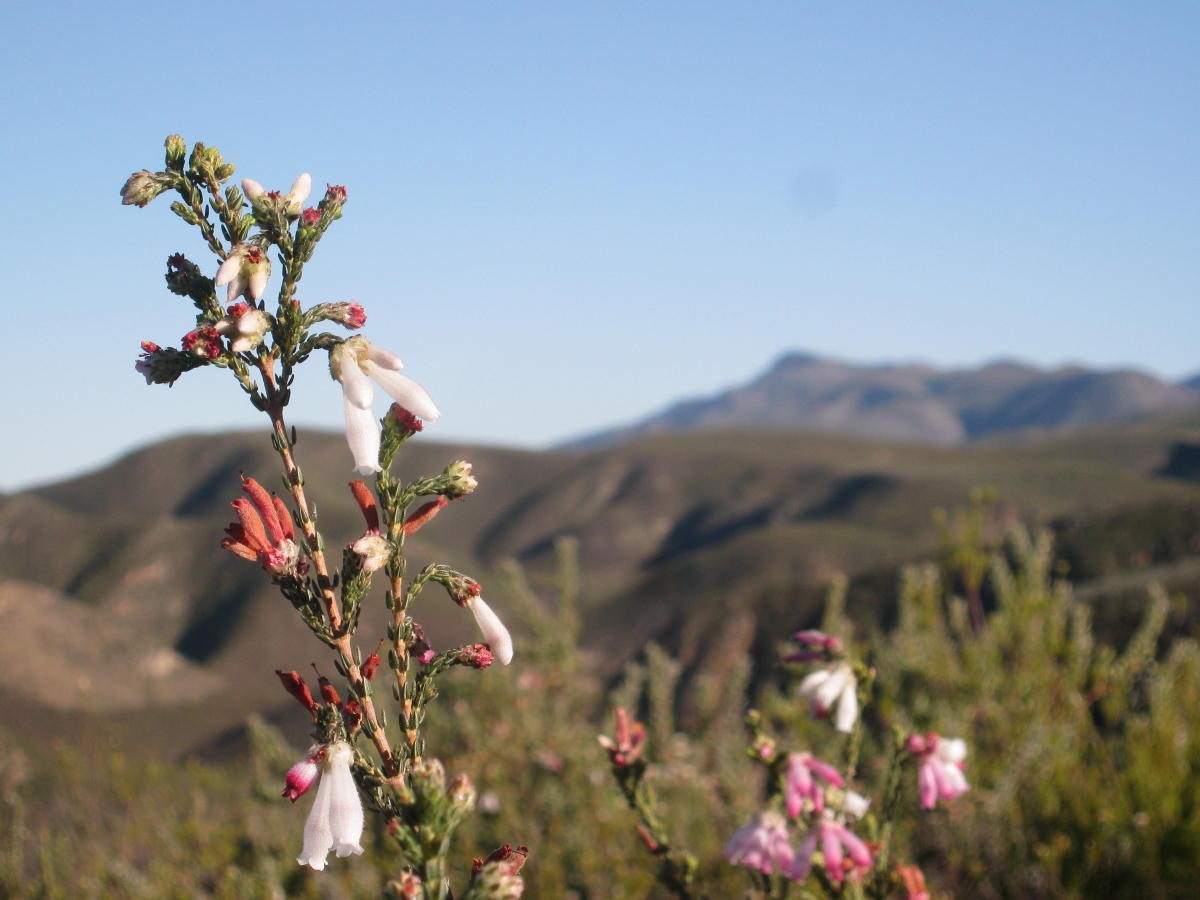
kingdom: Plantae
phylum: Tracheophyta
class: Magnoliopsida
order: Ericales
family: Ericaceae
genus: Erica
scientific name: Erica pectinifolia
